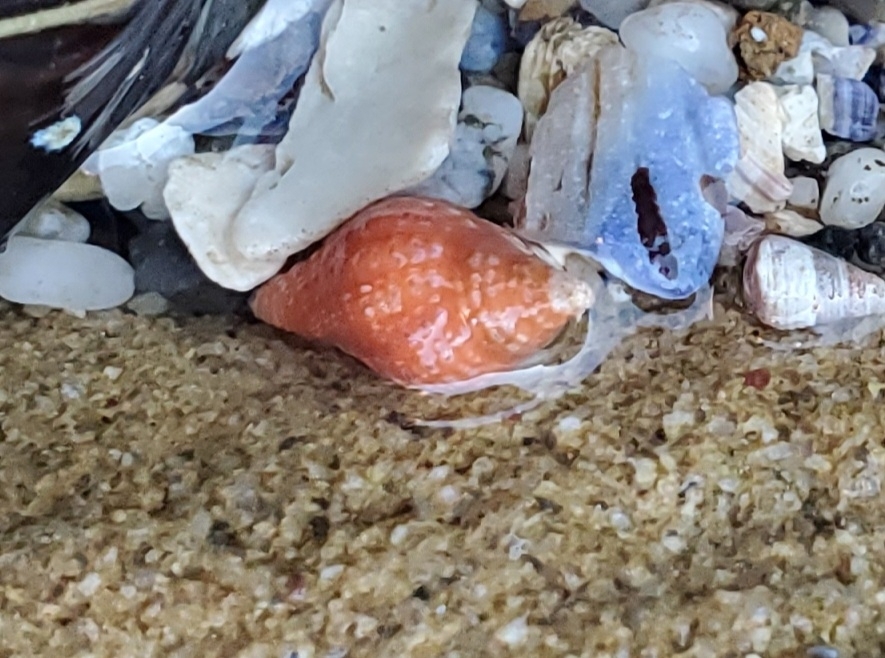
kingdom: Animalia
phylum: Mollusca
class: Gastropoda
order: Neogastropoda
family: Columbellidae
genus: Amphissa
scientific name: Amphissa versicolor
